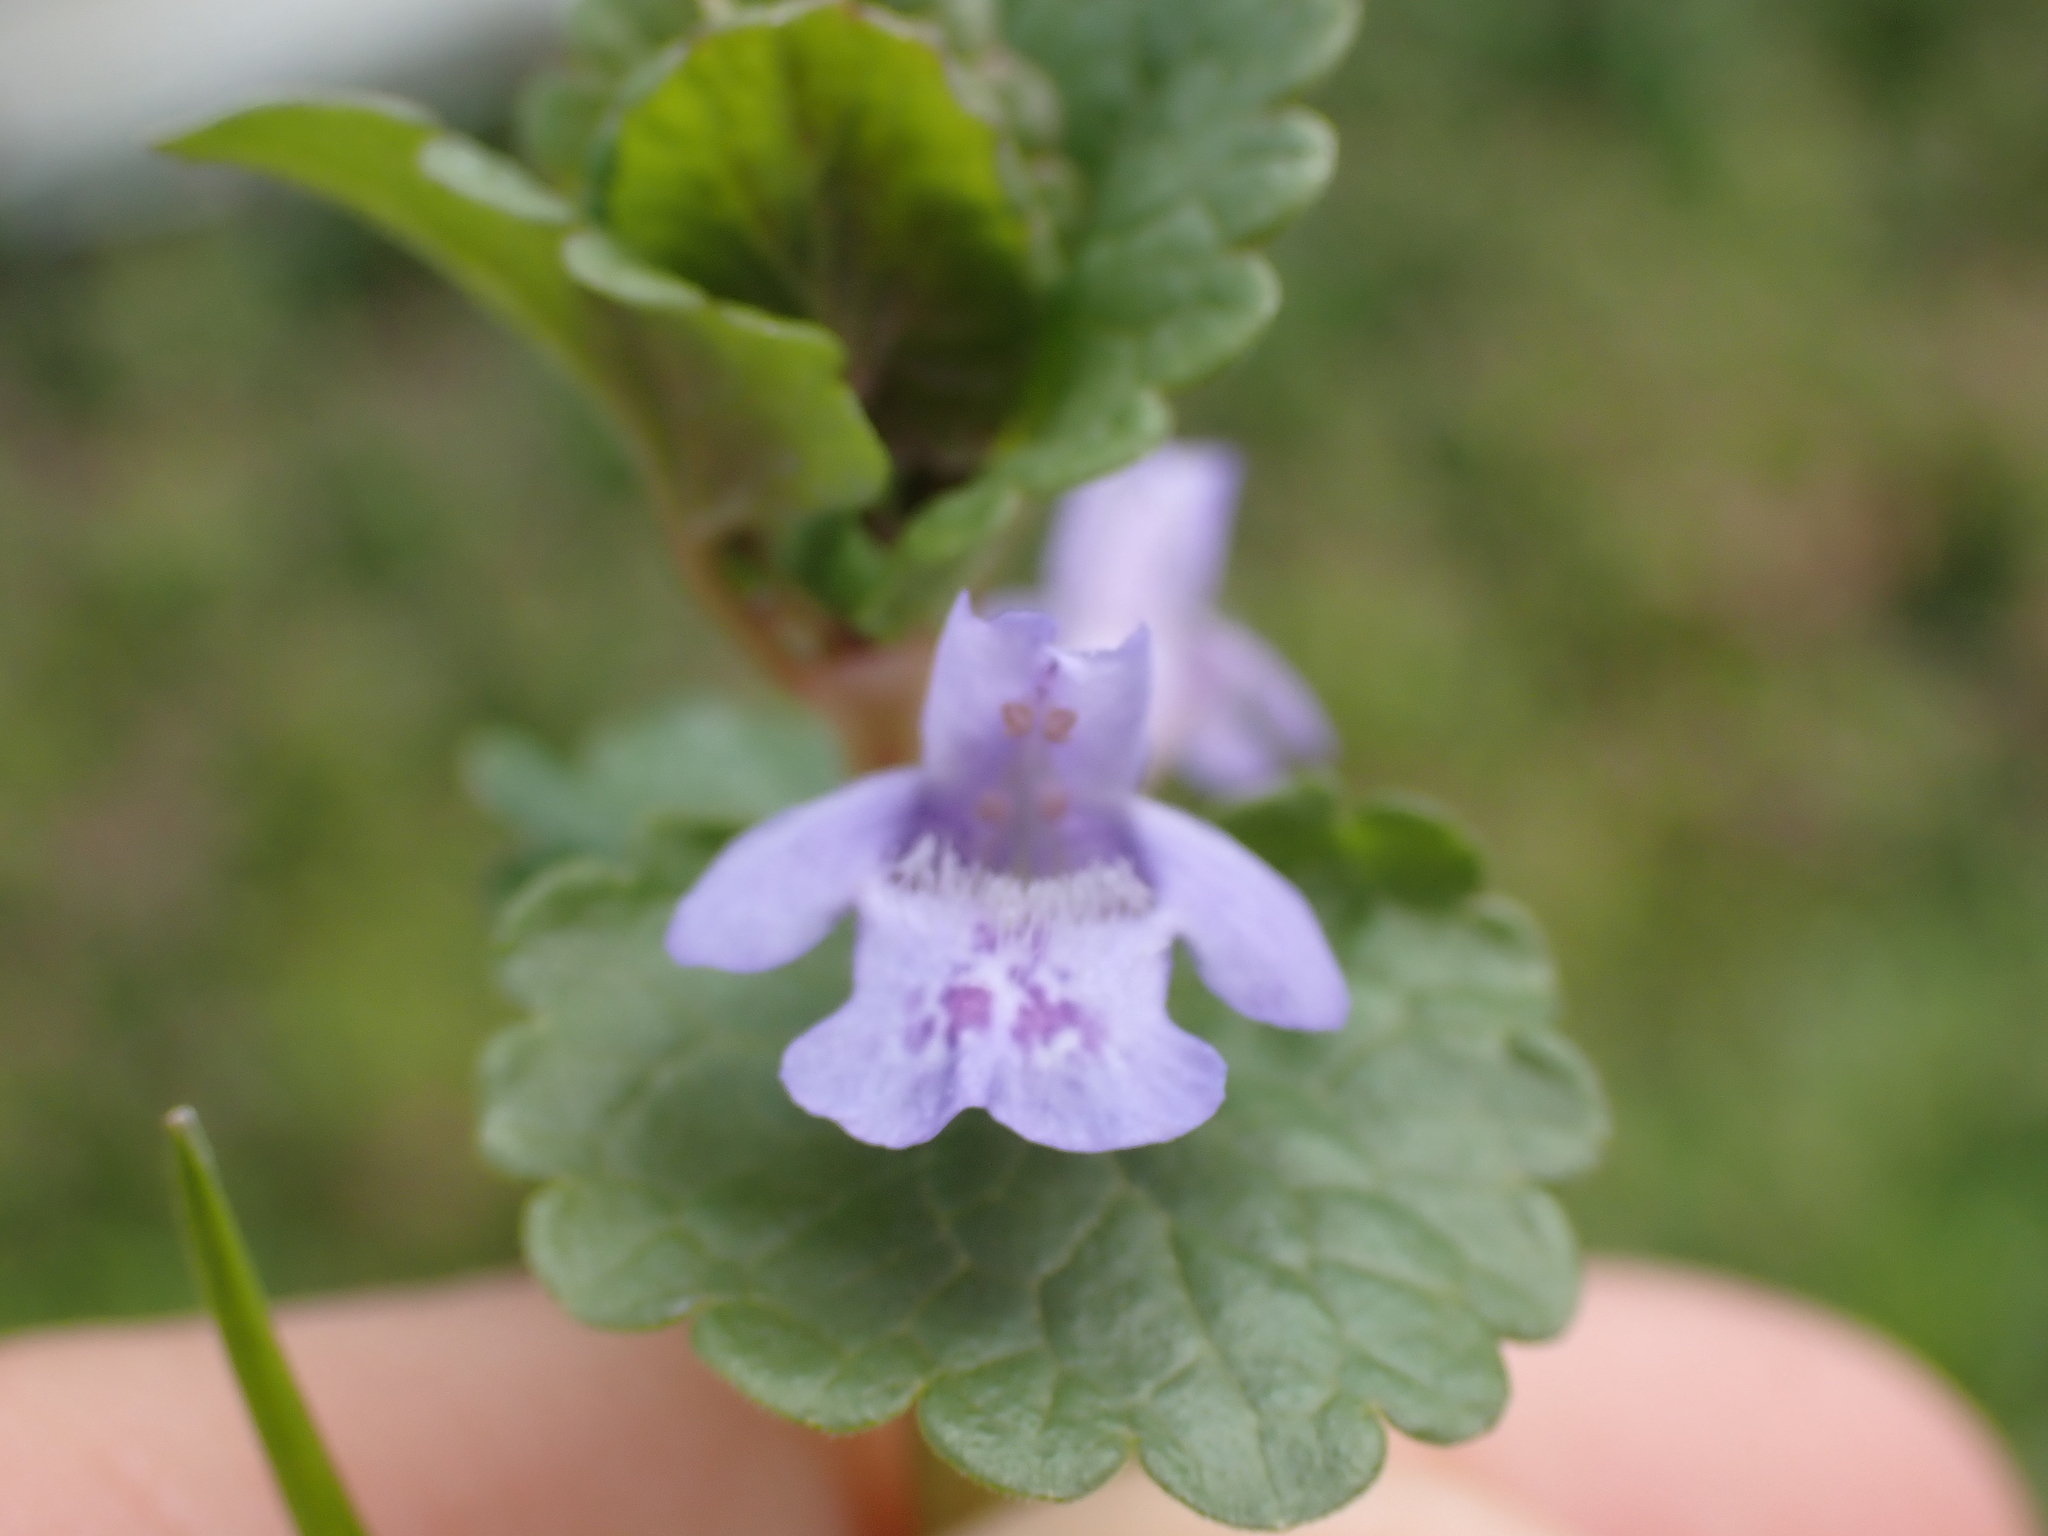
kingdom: Plantae
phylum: Tracheophyta
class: Magnoliopsida
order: Lamiales
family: Lamiaceae
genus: Glechoma
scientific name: Glechoma hederacea
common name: Ground ivy
